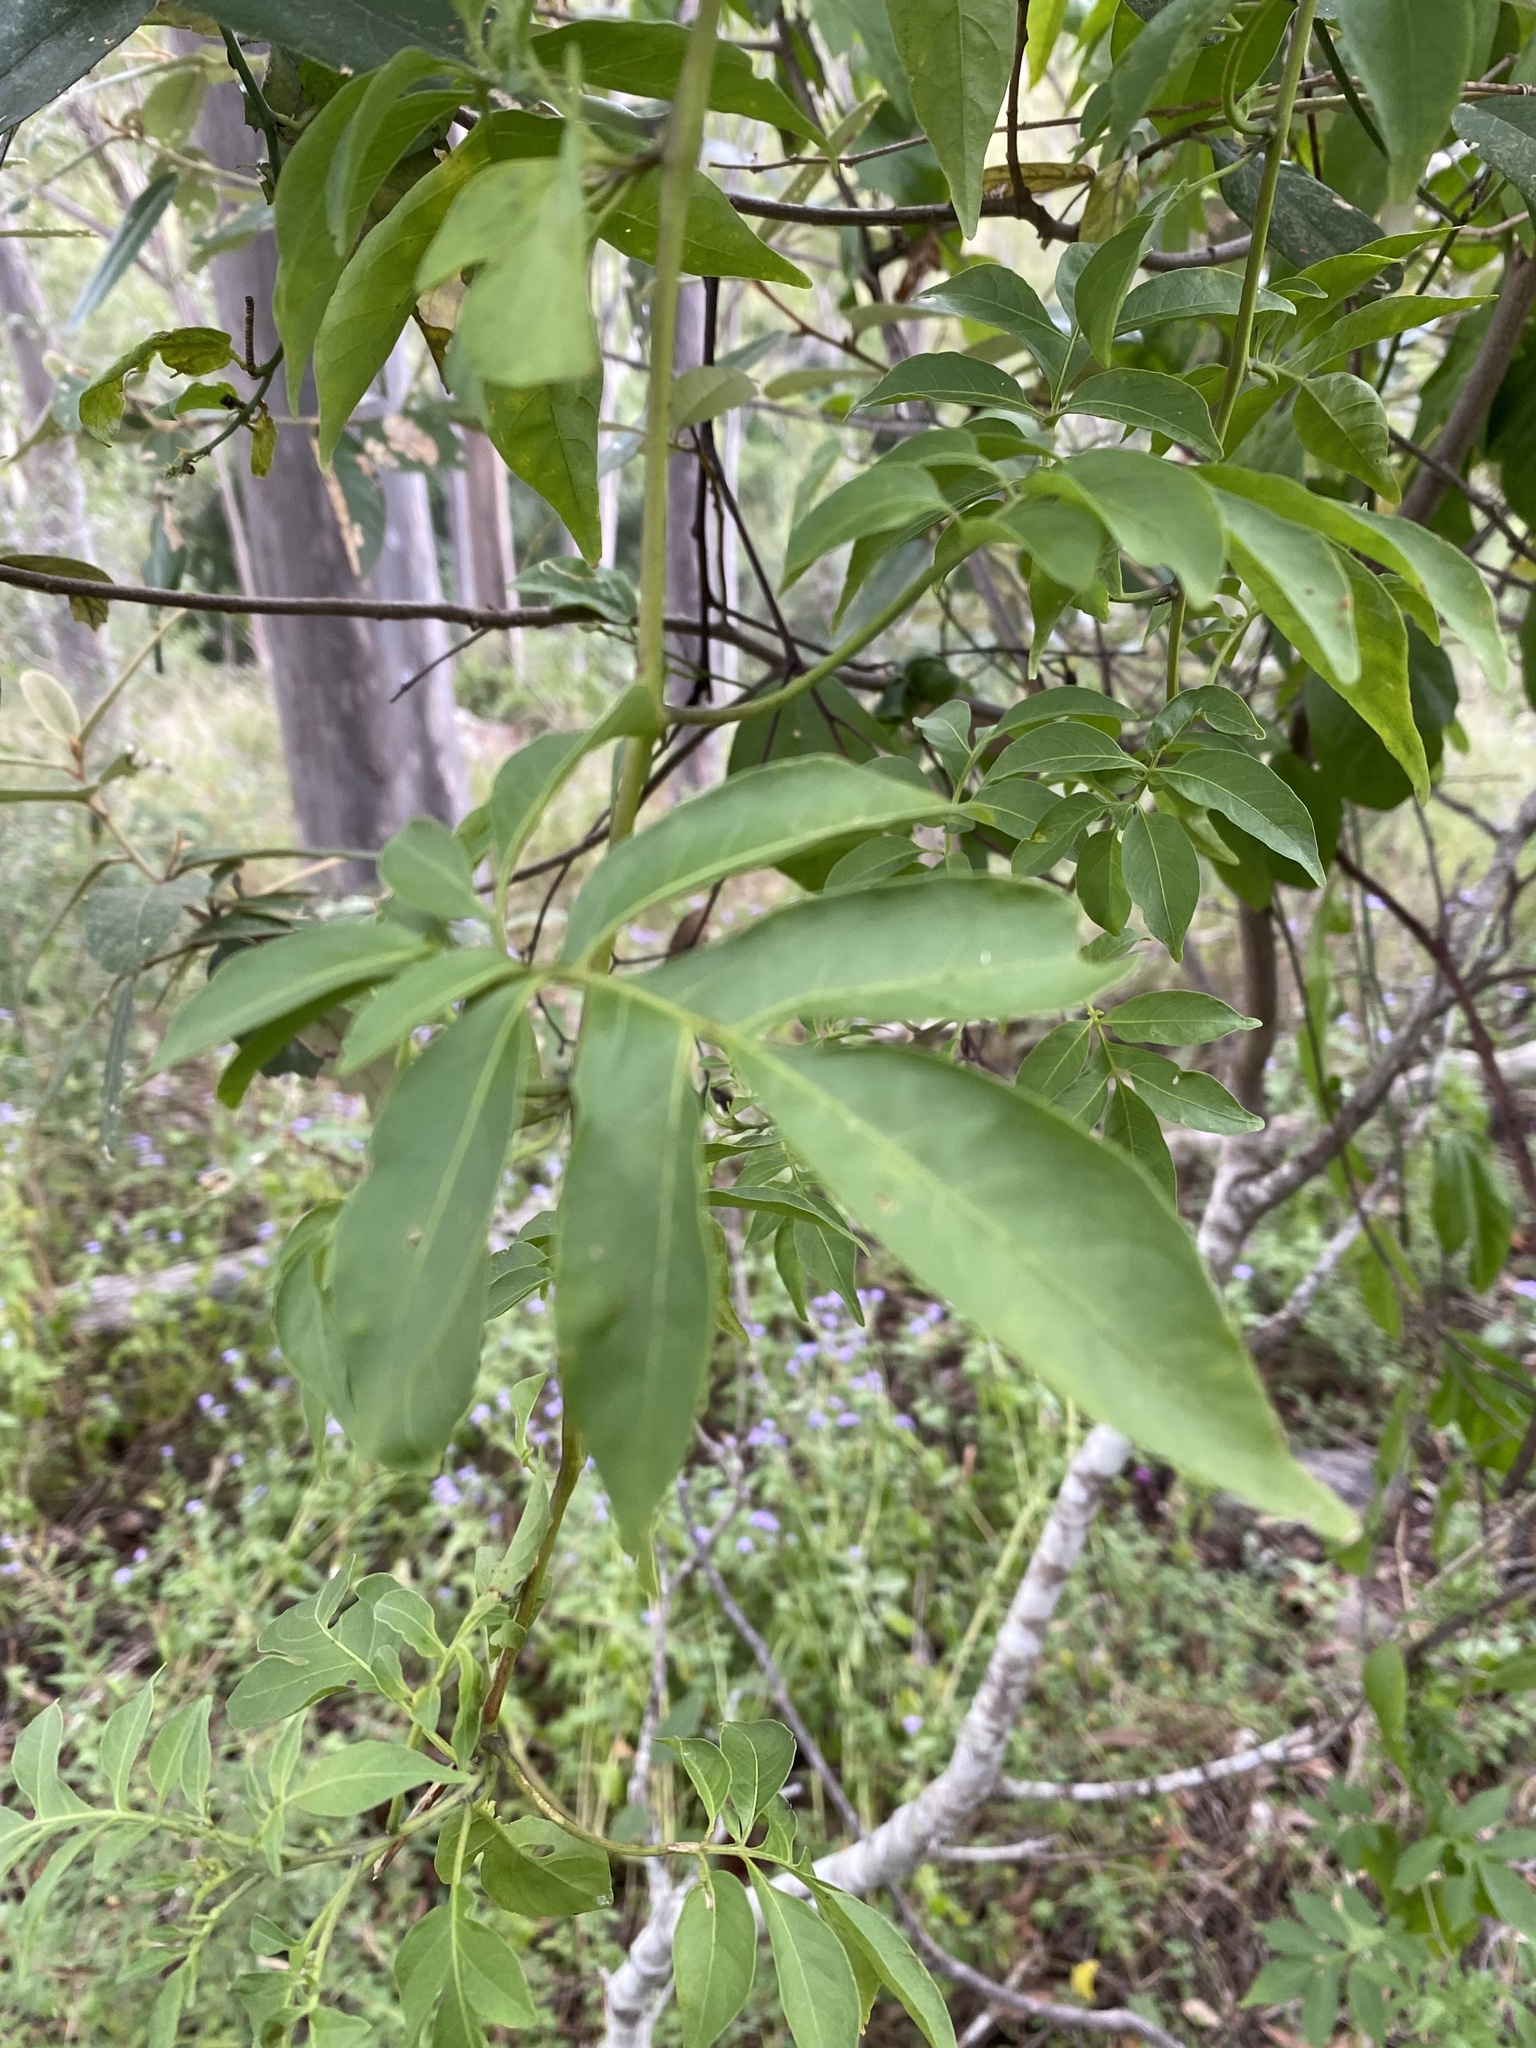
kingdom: Plantae
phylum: Tracheophyta
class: Magnoliopsida
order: Solanales
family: Solanaceae
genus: Solanum
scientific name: Solanum seaforthianum
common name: Brazilian nightshade
